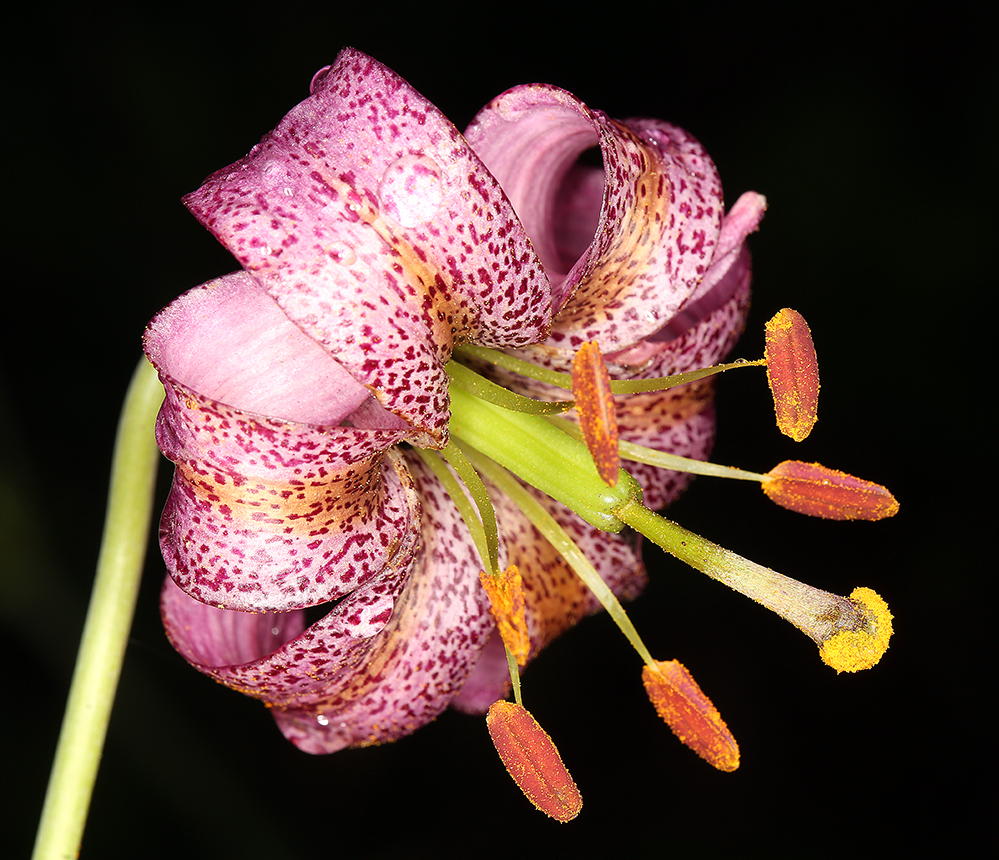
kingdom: Plantae
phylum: Tracheophyta
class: Liliopsida
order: Liliales
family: Liliaceae
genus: Lilium
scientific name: Lilium kelloggii
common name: Kellogg's lily
